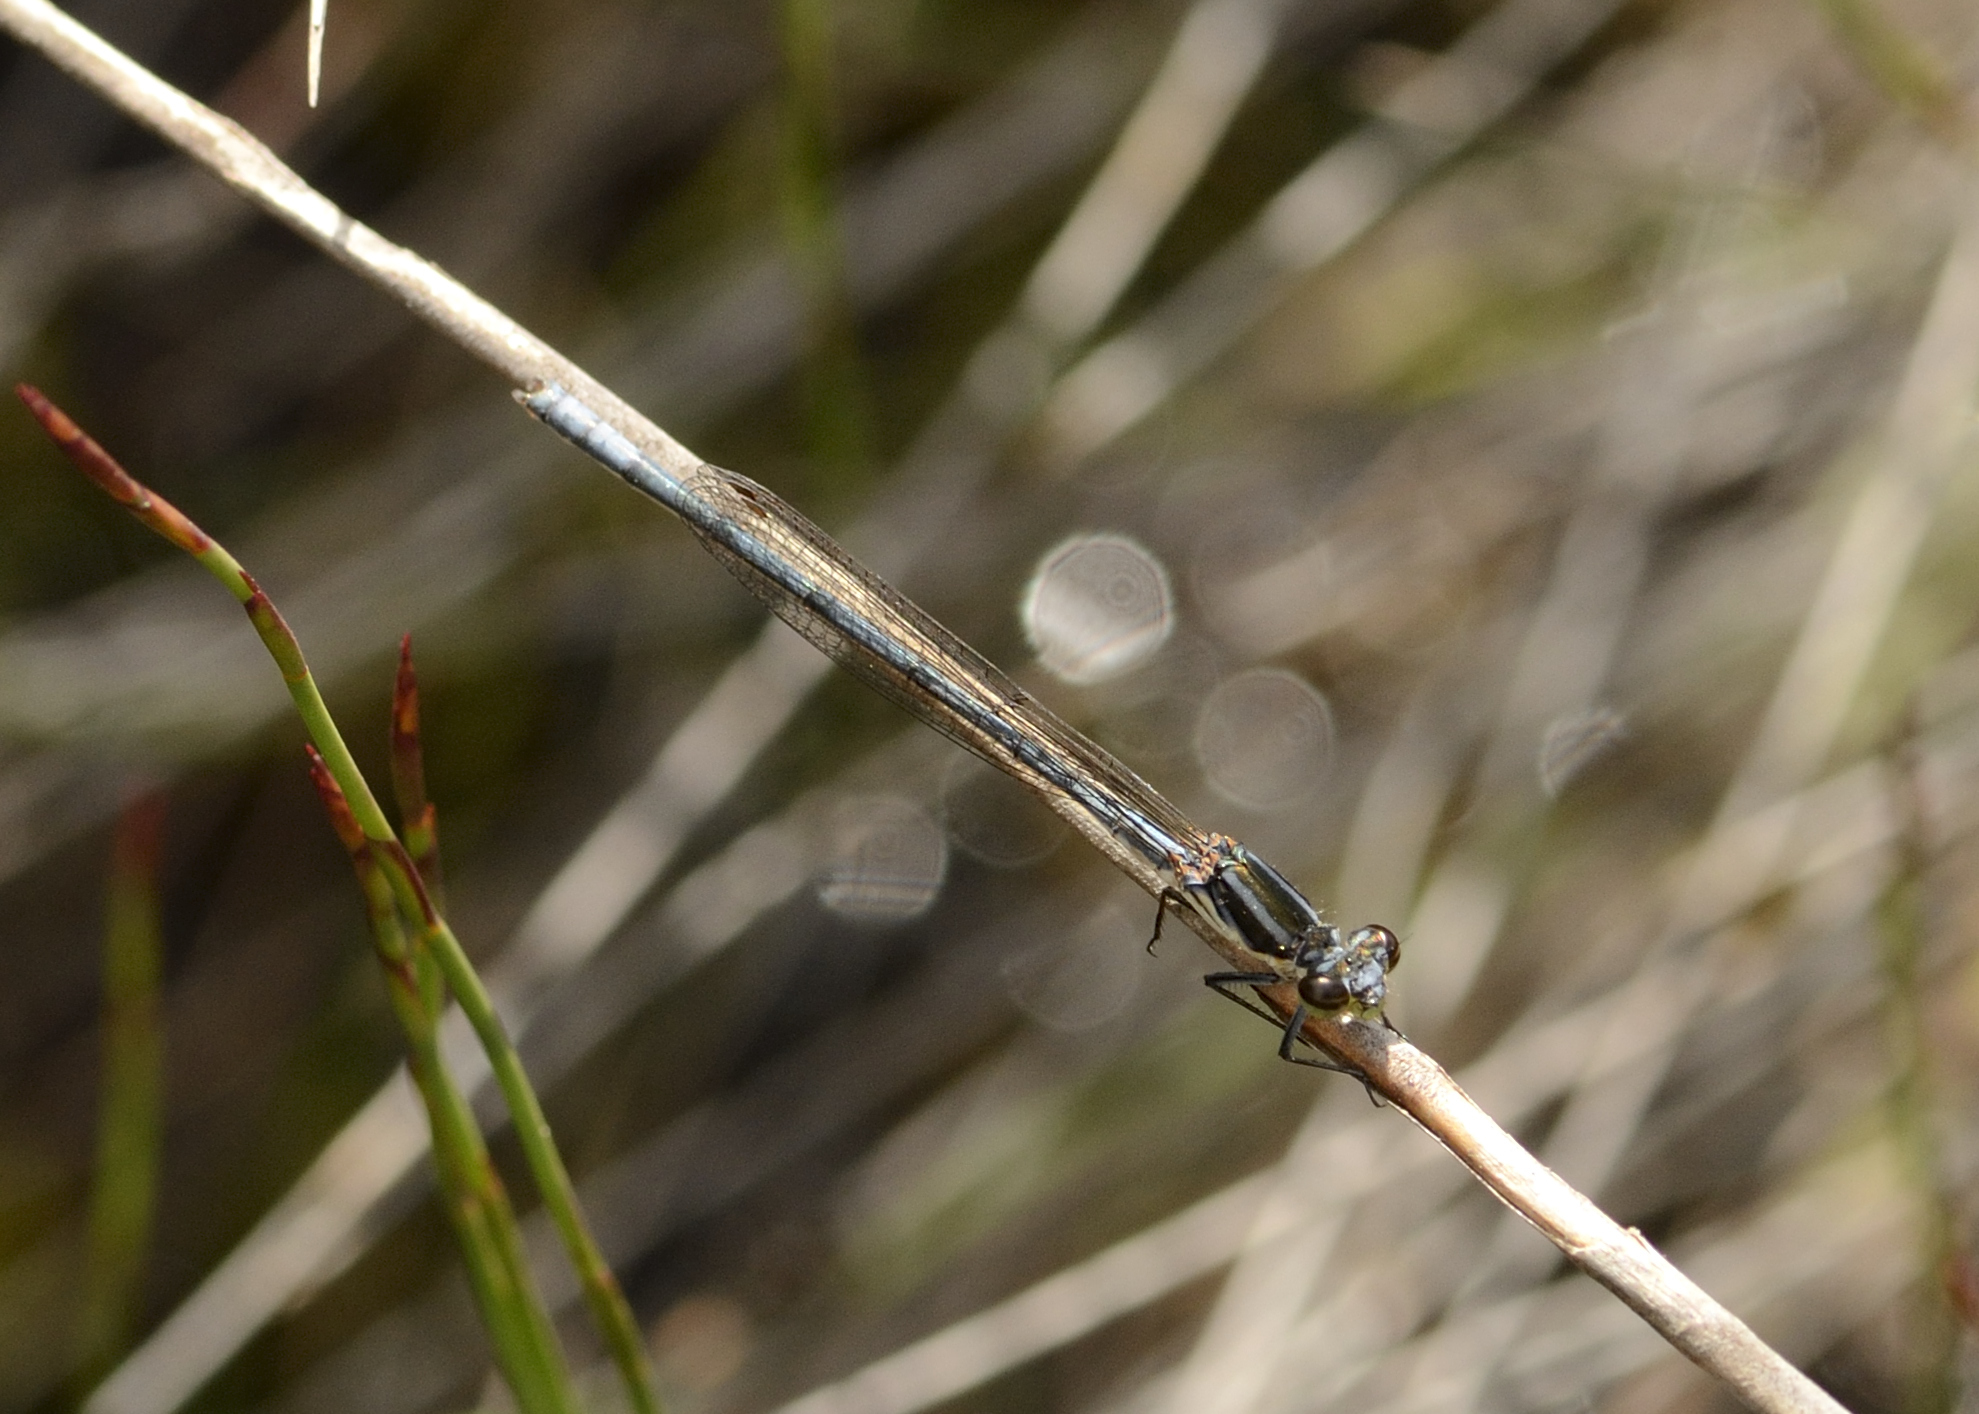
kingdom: Animalia
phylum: Arthropoda
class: Insecta
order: Odonata
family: Coenagrionidae
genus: Pseudagrion
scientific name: Pseudagrion furcigerum
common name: Palmiet sprite
